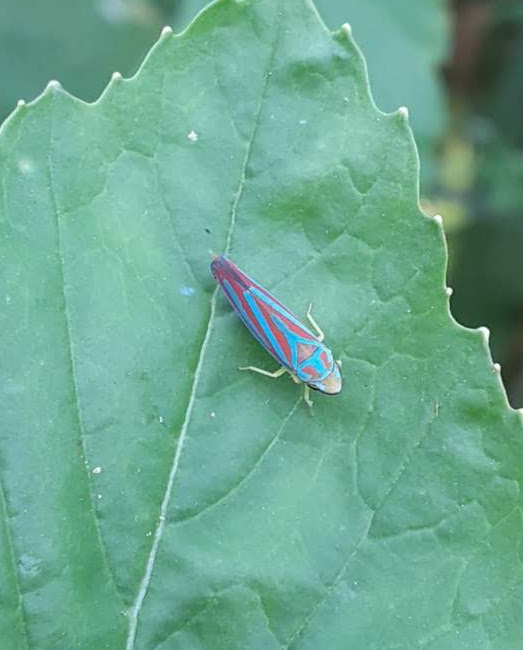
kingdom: Animalia
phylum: Arthropoda
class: Insecta
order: Hemiptera
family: Cicadellidae
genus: Graphocephala
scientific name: Graphocephala coccinea
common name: Candy-striped leafhopper
